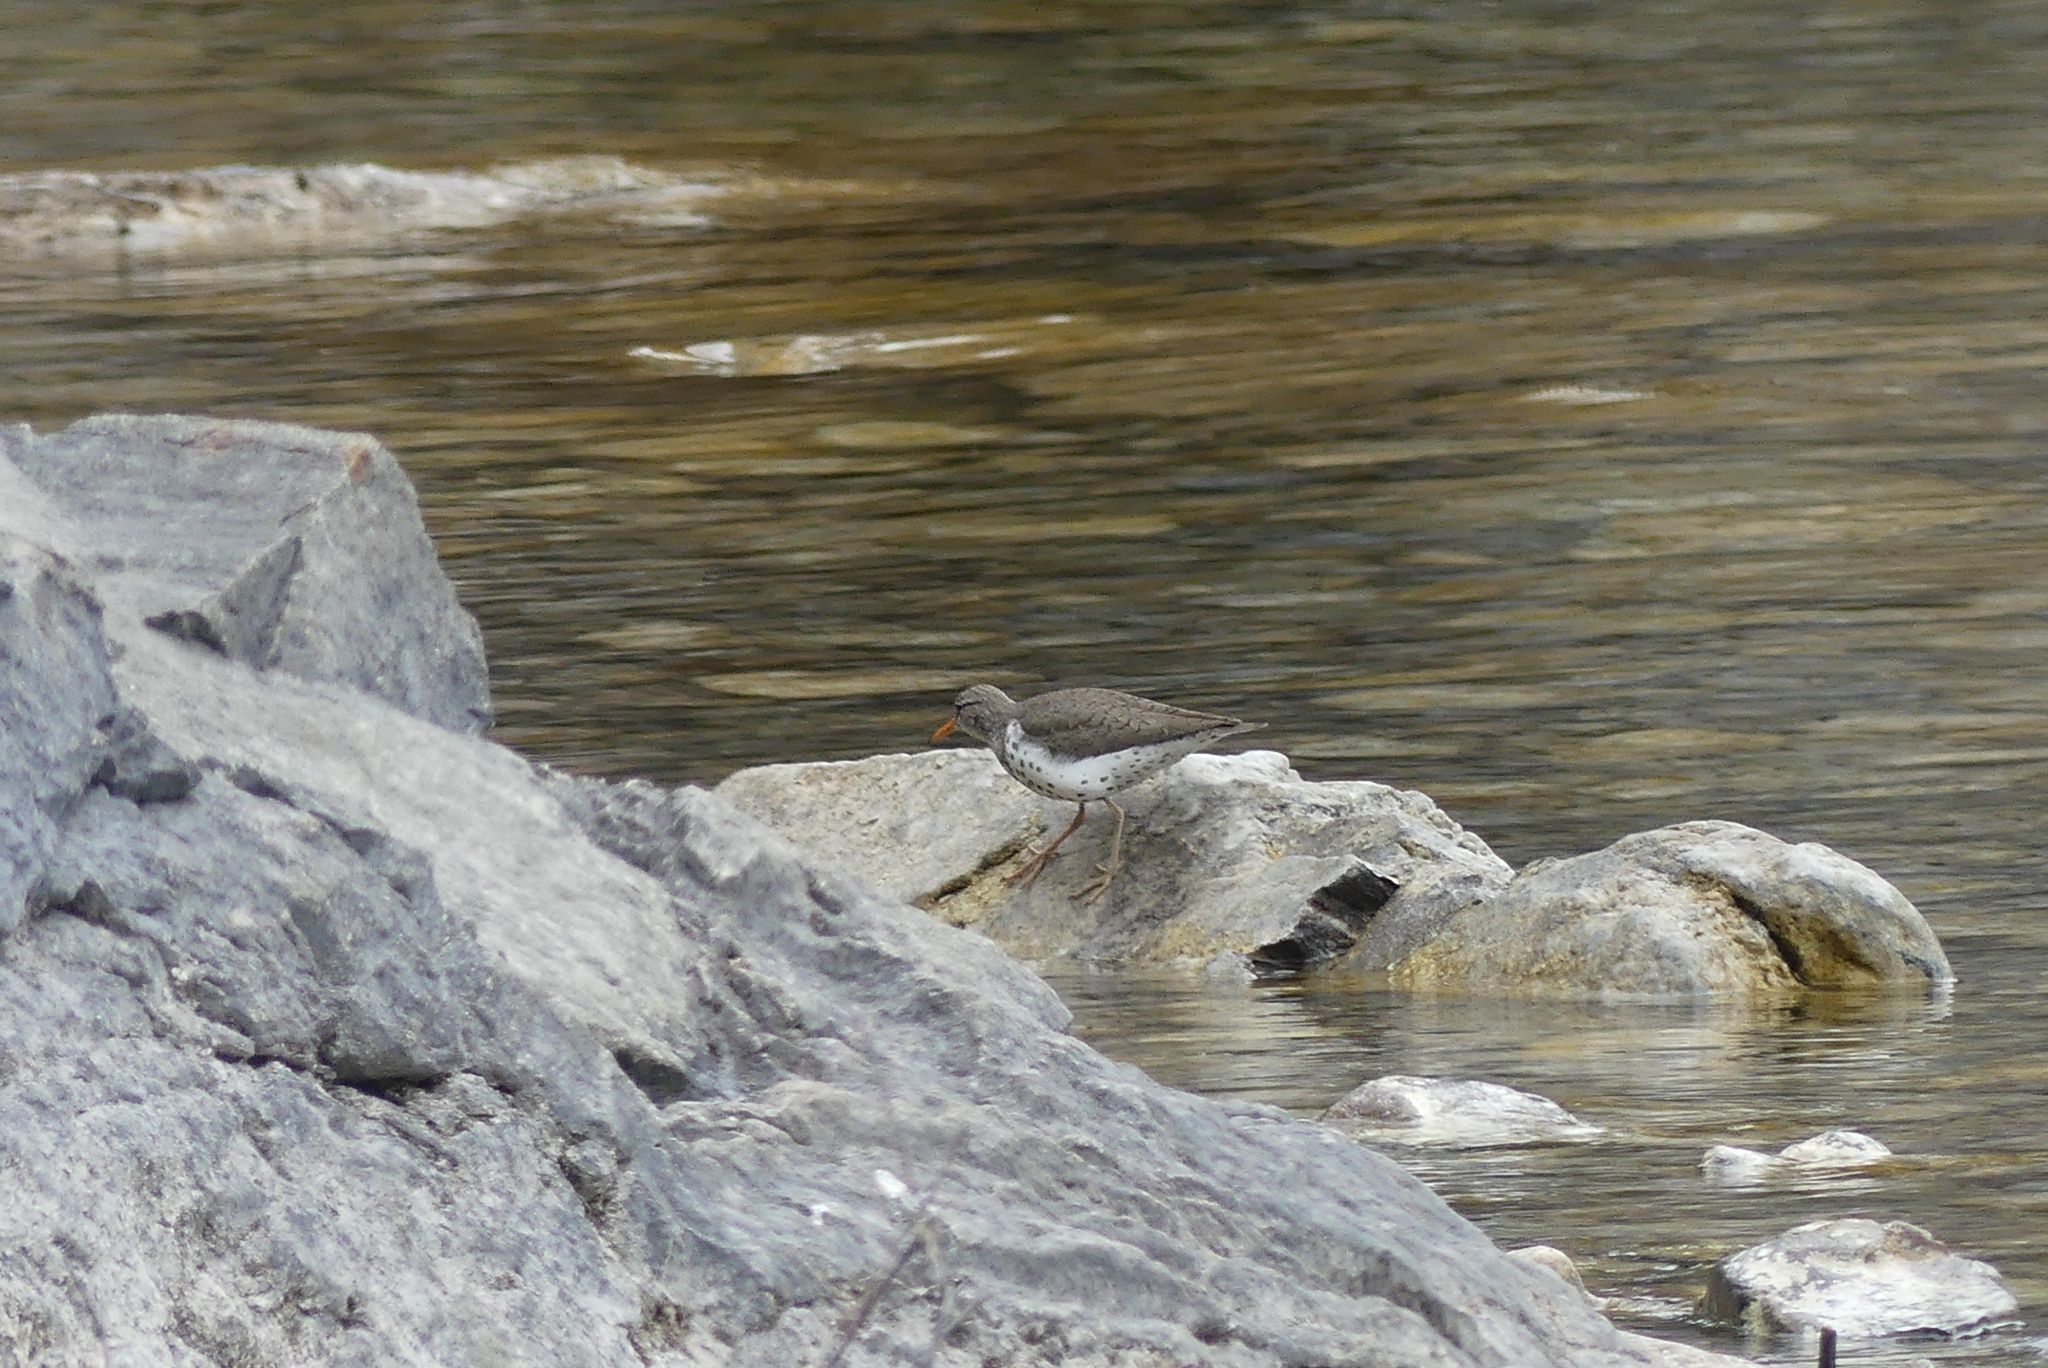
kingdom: Animalia
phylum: Chordata
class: Aves
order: Charadriiformes
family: Scolopacidae
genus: Actitis
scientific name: Actitis macularius
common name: Spotted sandpiper
